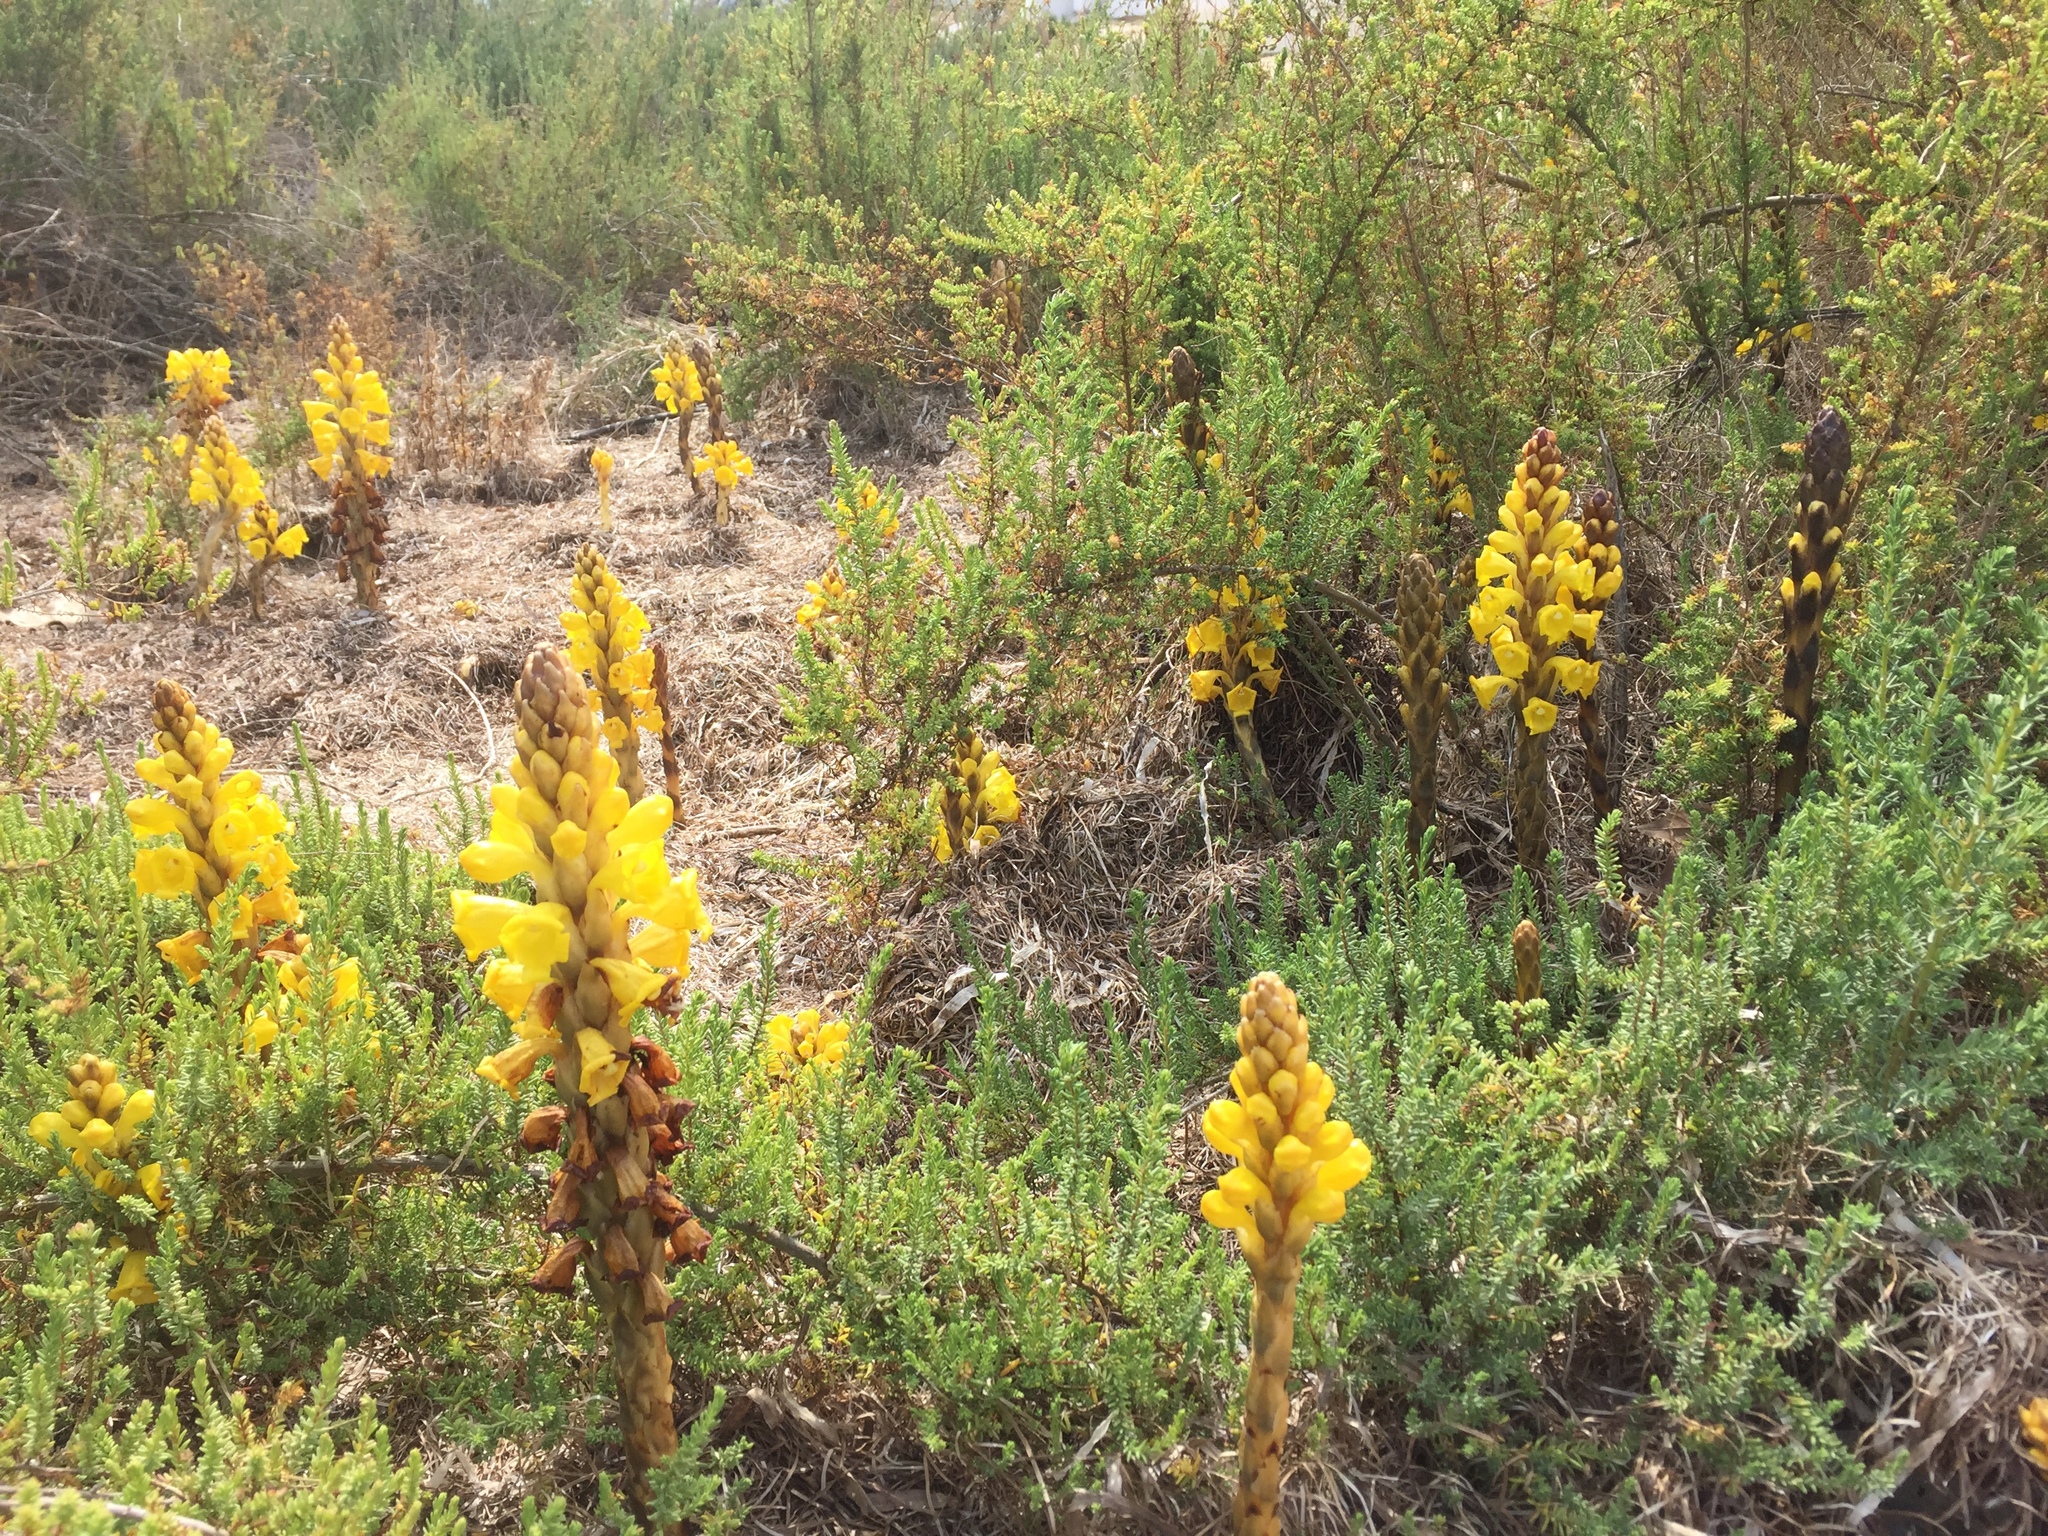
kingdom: Plantae
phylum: Tracheophyta
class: Magnoliopsida
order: Lamiales
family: Orobanchaceae
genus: Cistanche
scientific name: Cistanche phelypaea
